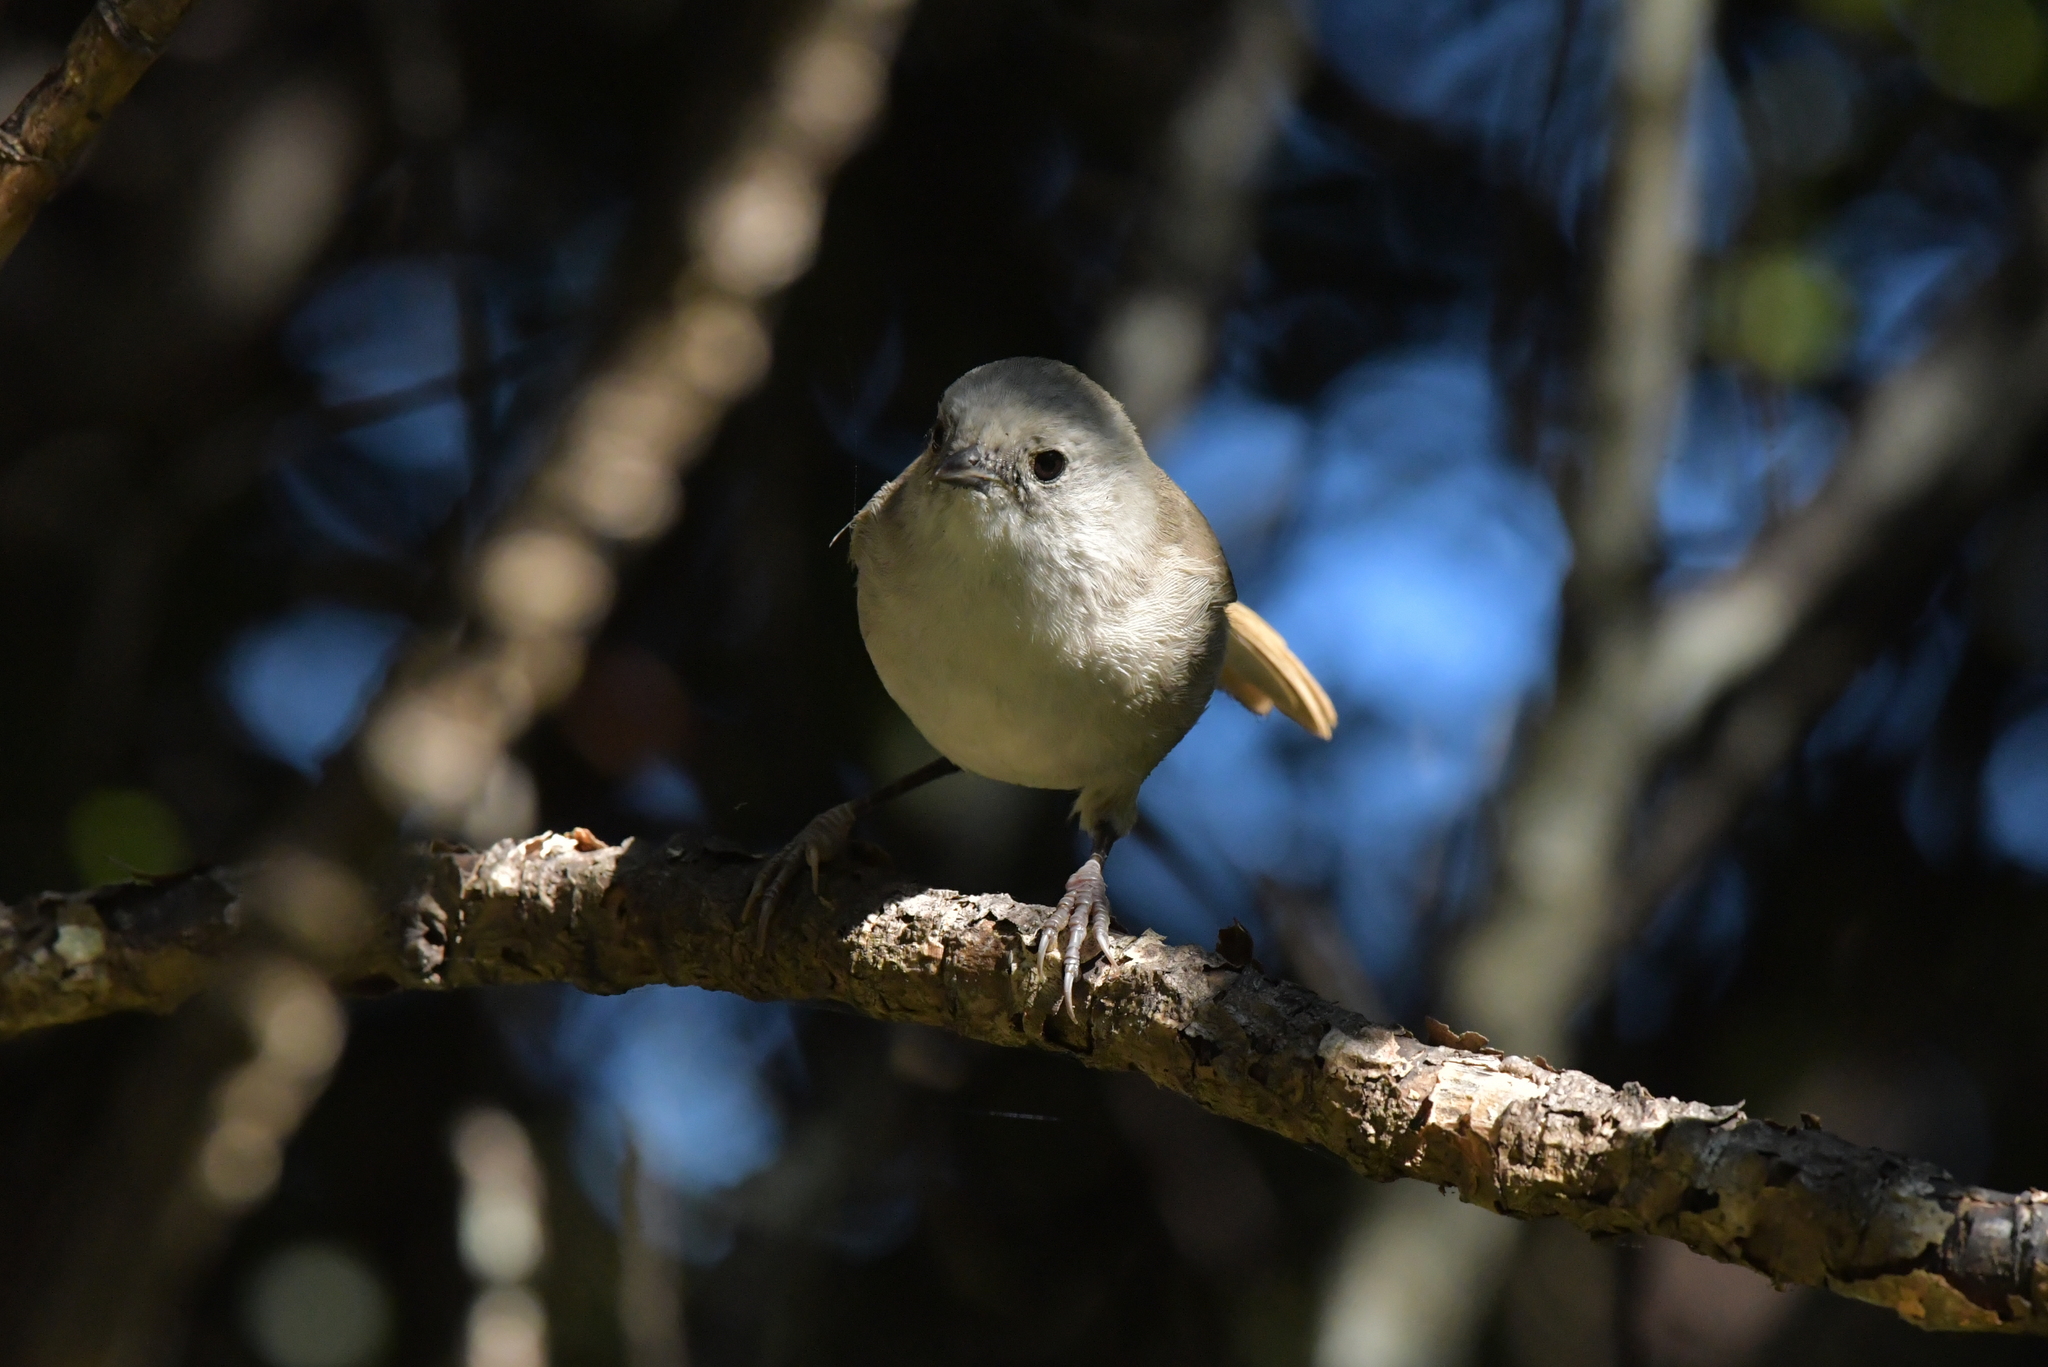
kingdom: Animalia
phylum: Chordata
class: Aves
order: Passeriformes
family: Acanthizidae
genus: Mohoua
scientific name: Mohoua albicilla
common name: Whitehead
